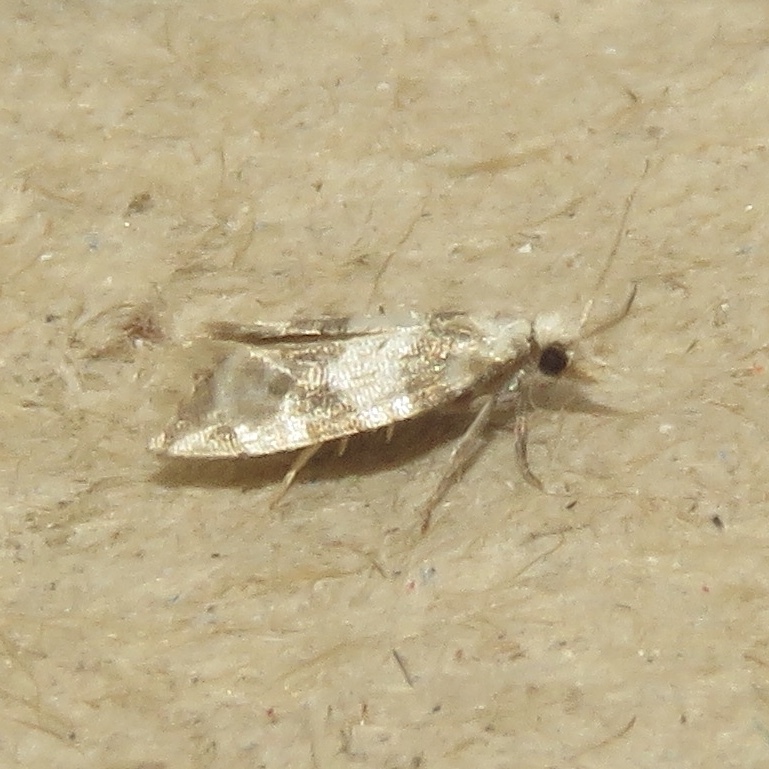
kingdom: Animalia
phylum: Arthropoda
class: Insecta
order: Lepidoptera
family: Tortricidae
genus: Aethes
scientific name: Aethes argentilimitana
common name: Silver-bordered aethes
